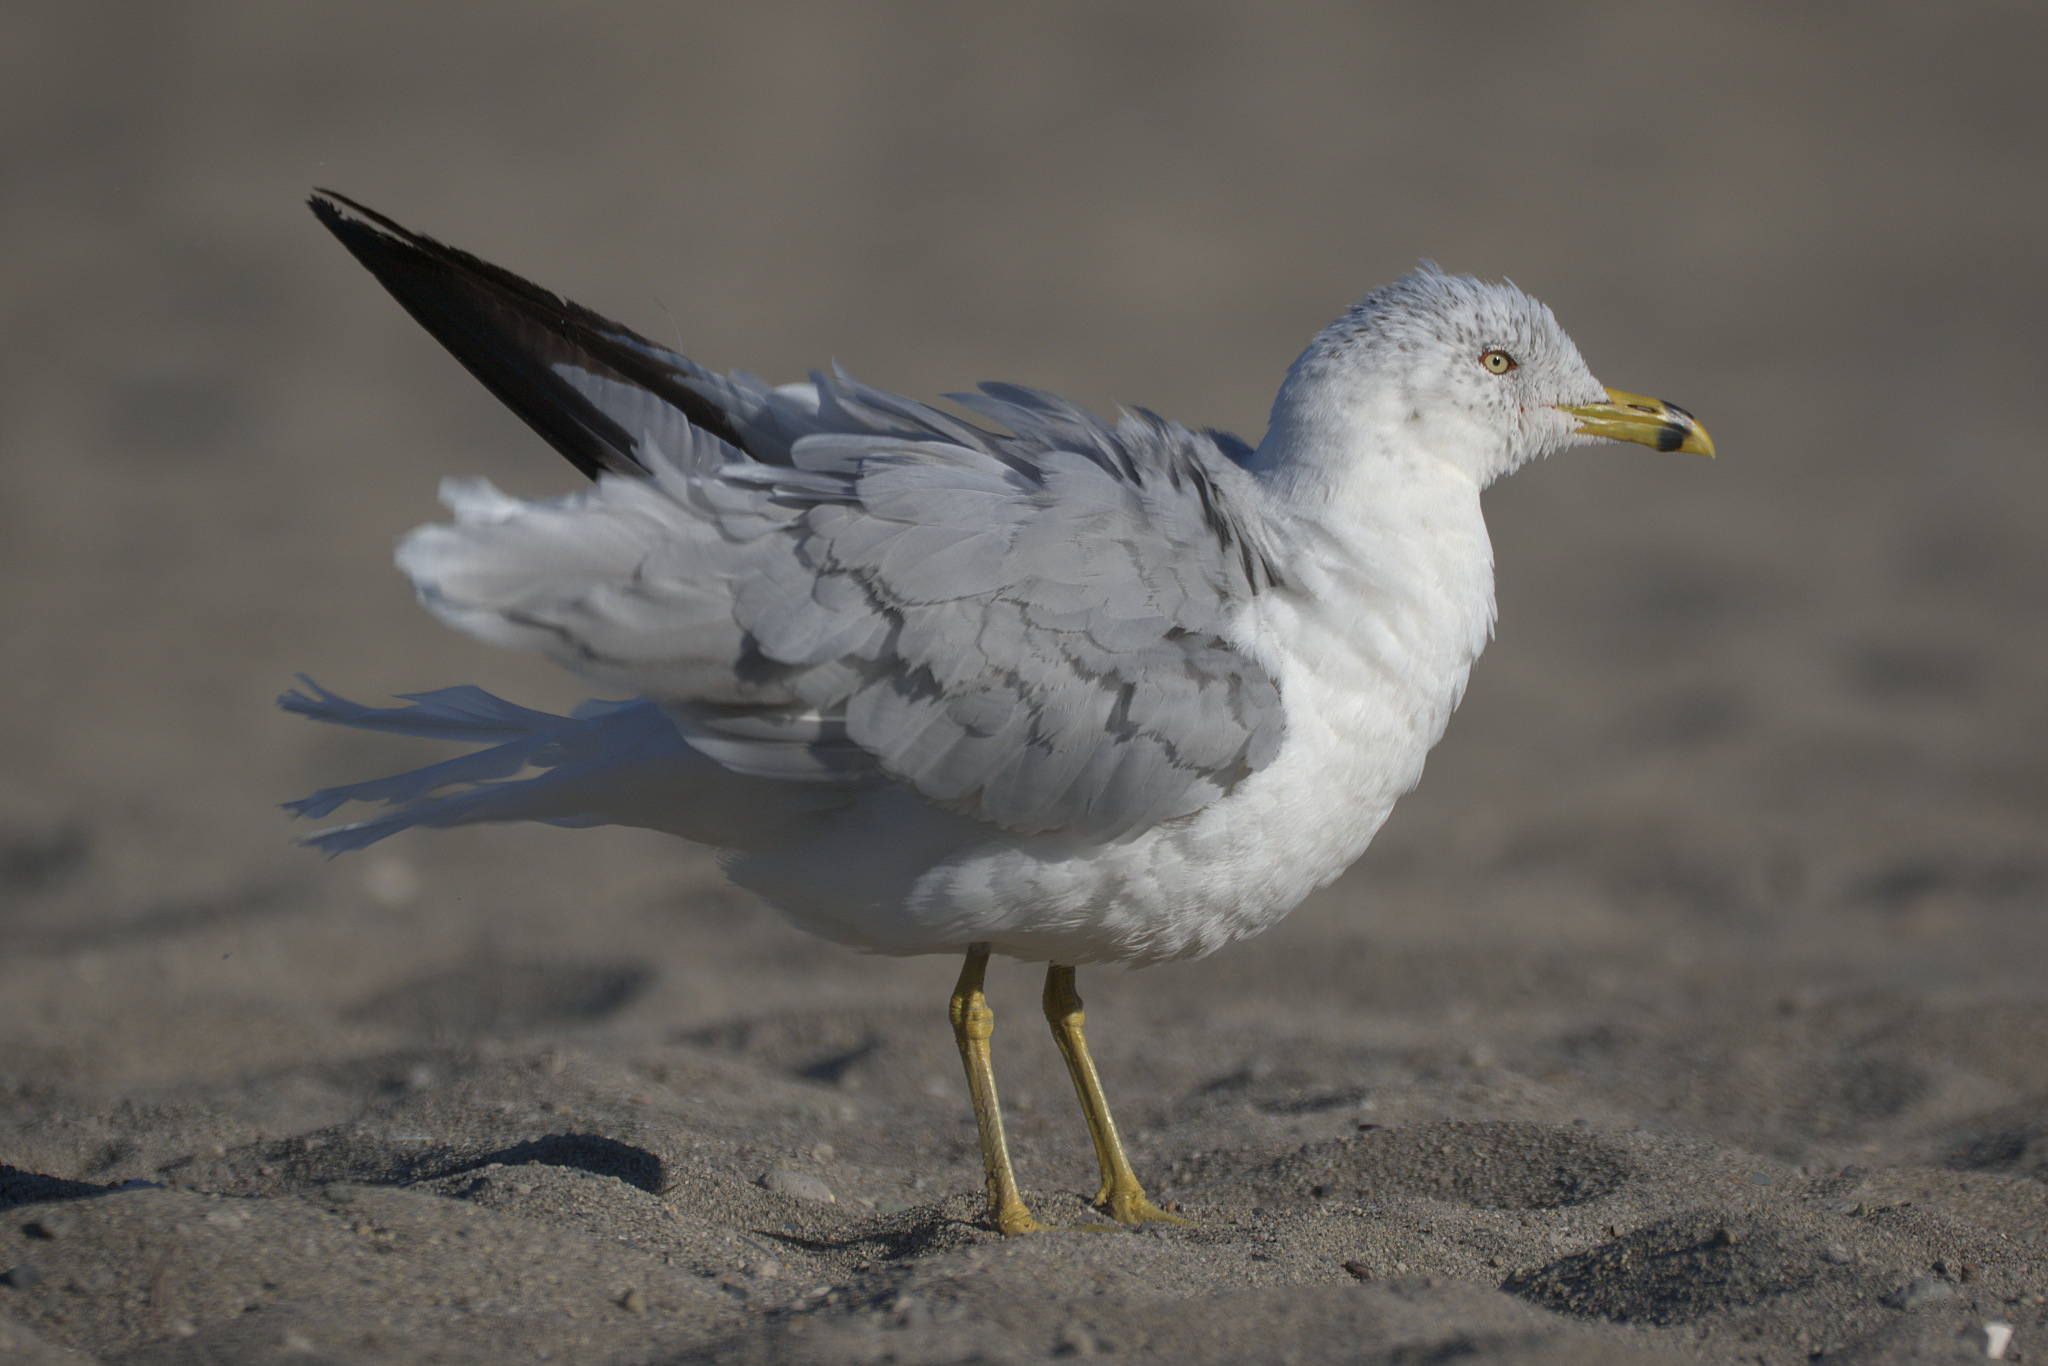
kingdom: Animalia
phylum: Chordata
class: Aves
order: Charadriiformes
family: Laridae
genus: Larus
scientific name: Larus delawarensis
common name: Ring-billed gull
